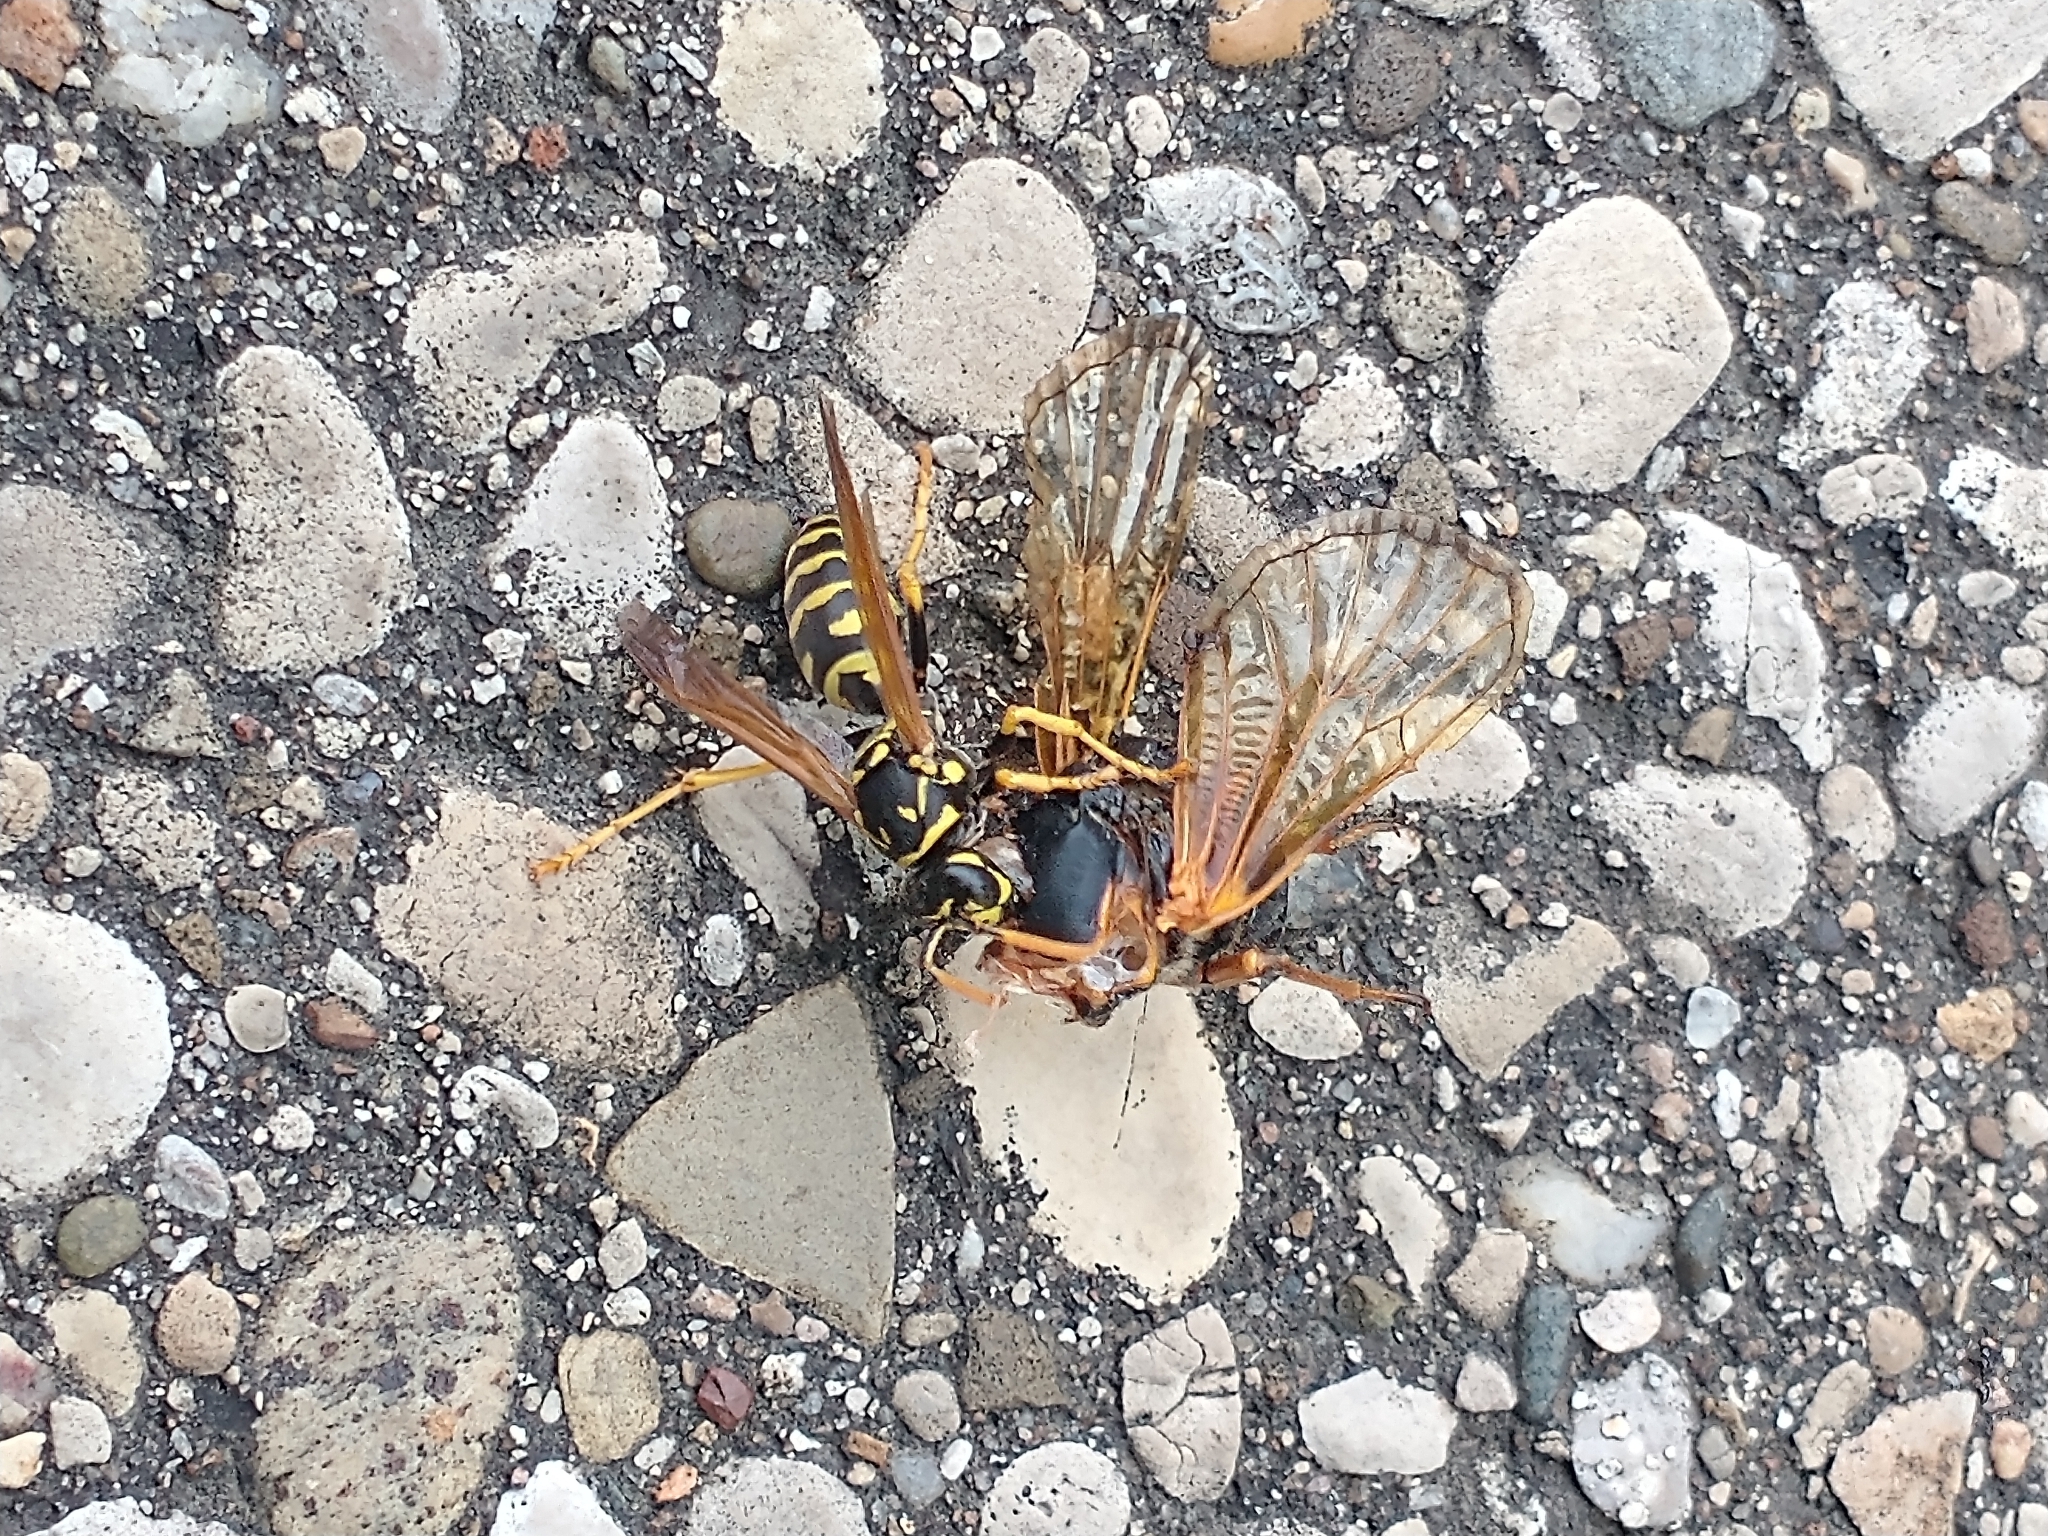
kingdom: Animalia
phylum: Arthropoda
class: Insecta
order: Hymenoptera
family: Eumenidae
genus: Polistes
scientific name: Polistes dominula
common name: Paper wasp
